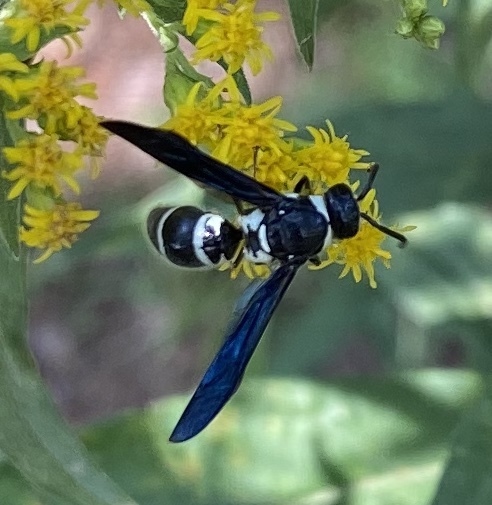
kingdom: Animalia
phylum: Arthropoda
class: Insecta
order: Hymenoptera
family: Eumenidae
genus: Pseudodynerus
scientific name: Pseudodynerus quadrisectus
